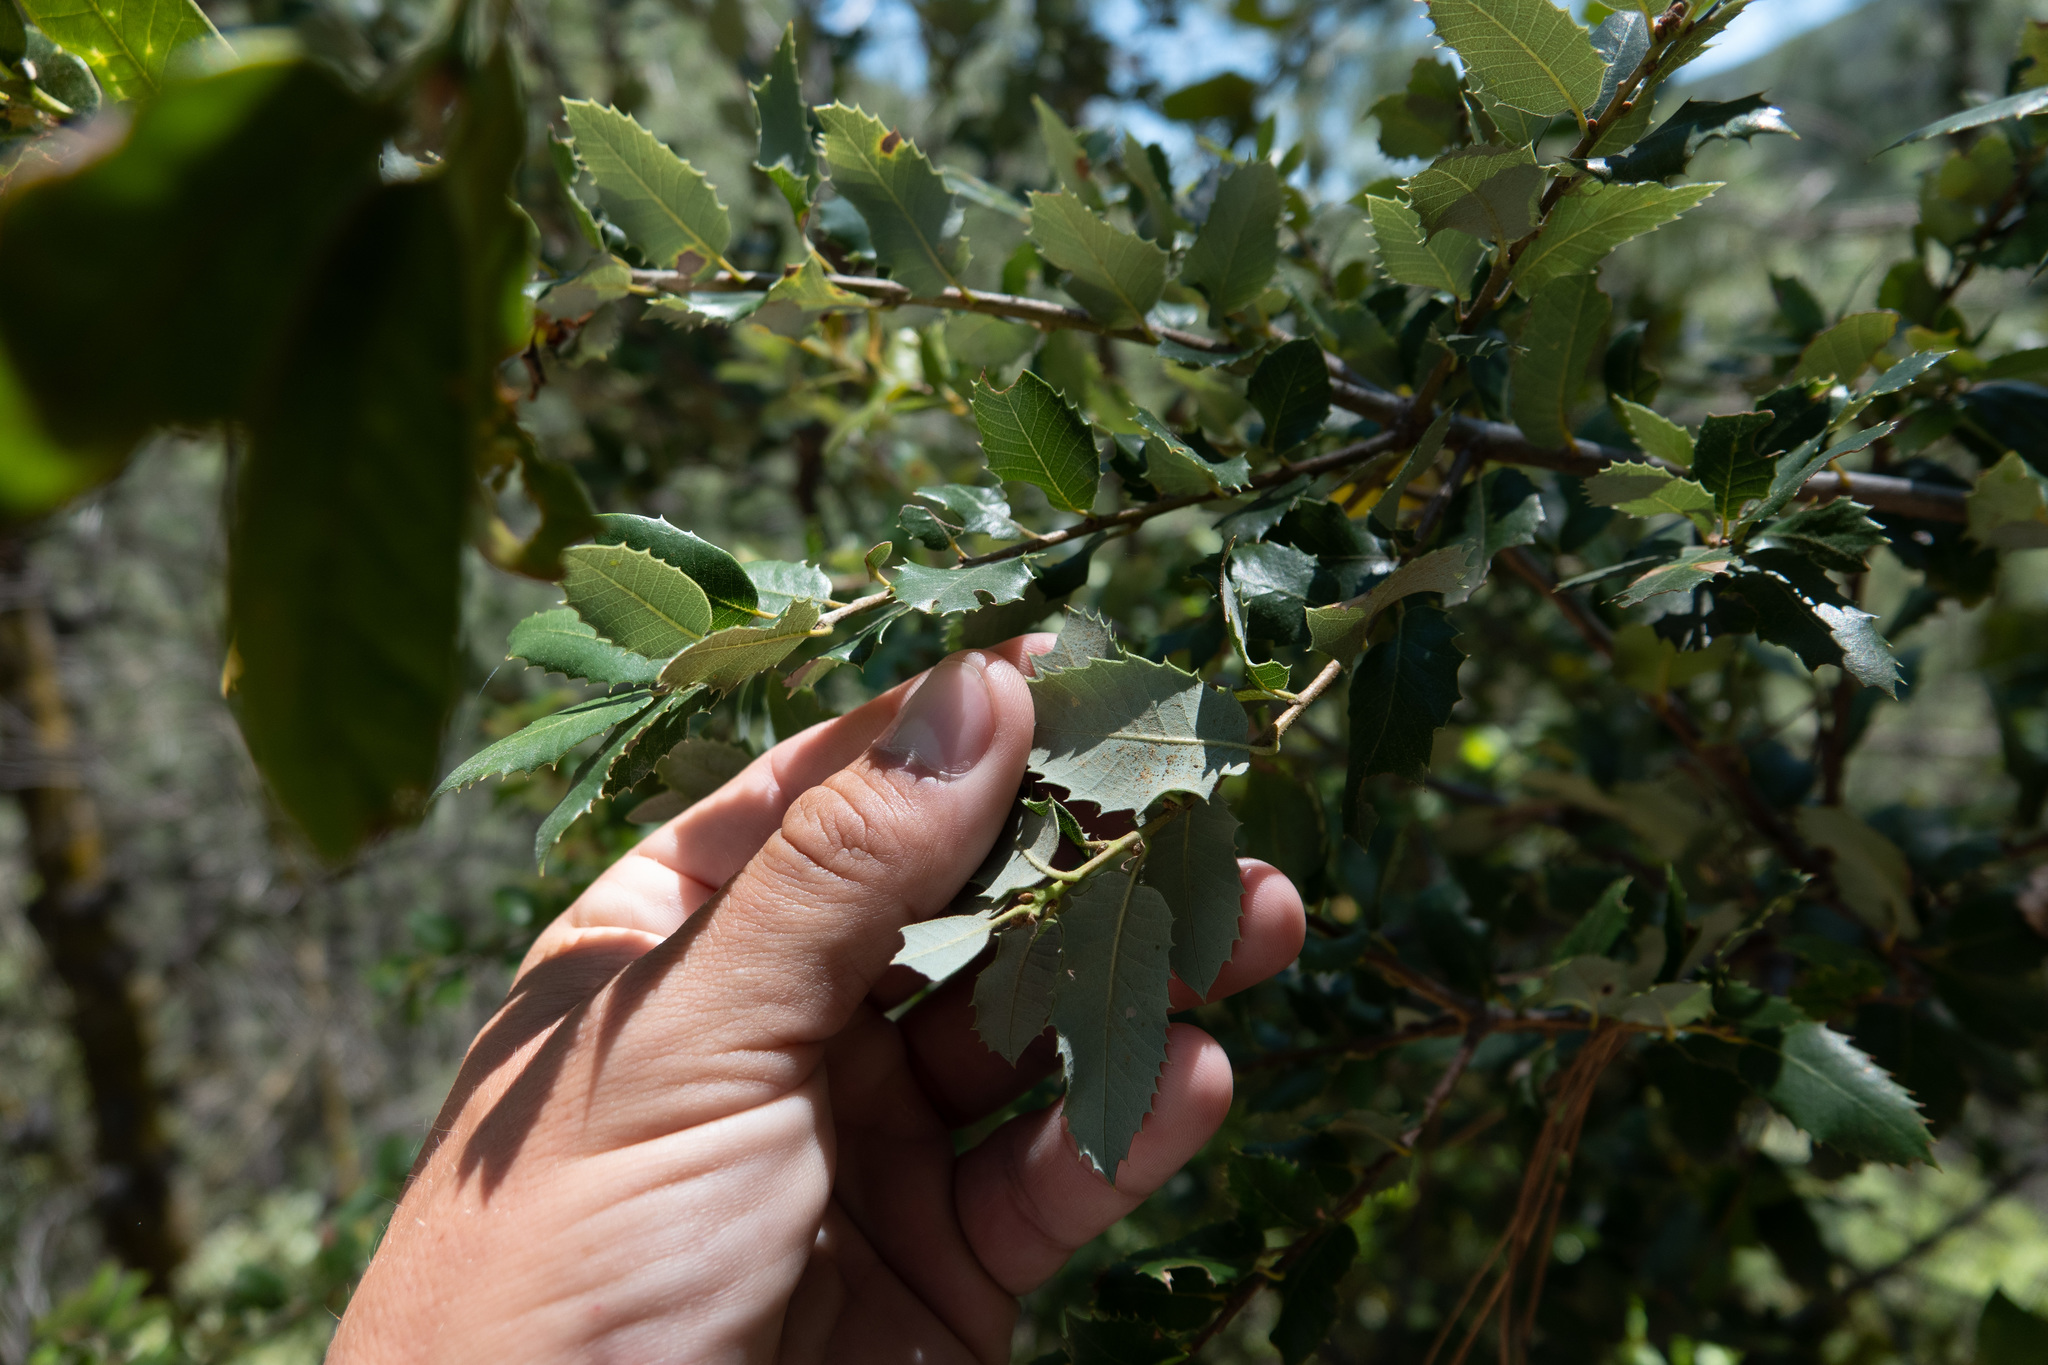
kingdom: Plantae
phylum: Tracheophyta
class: Magnoliopsida
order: Fagales
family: Fagaceae
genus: Quercus
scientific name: Quercus chrysolepis
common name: Canyon live oak
